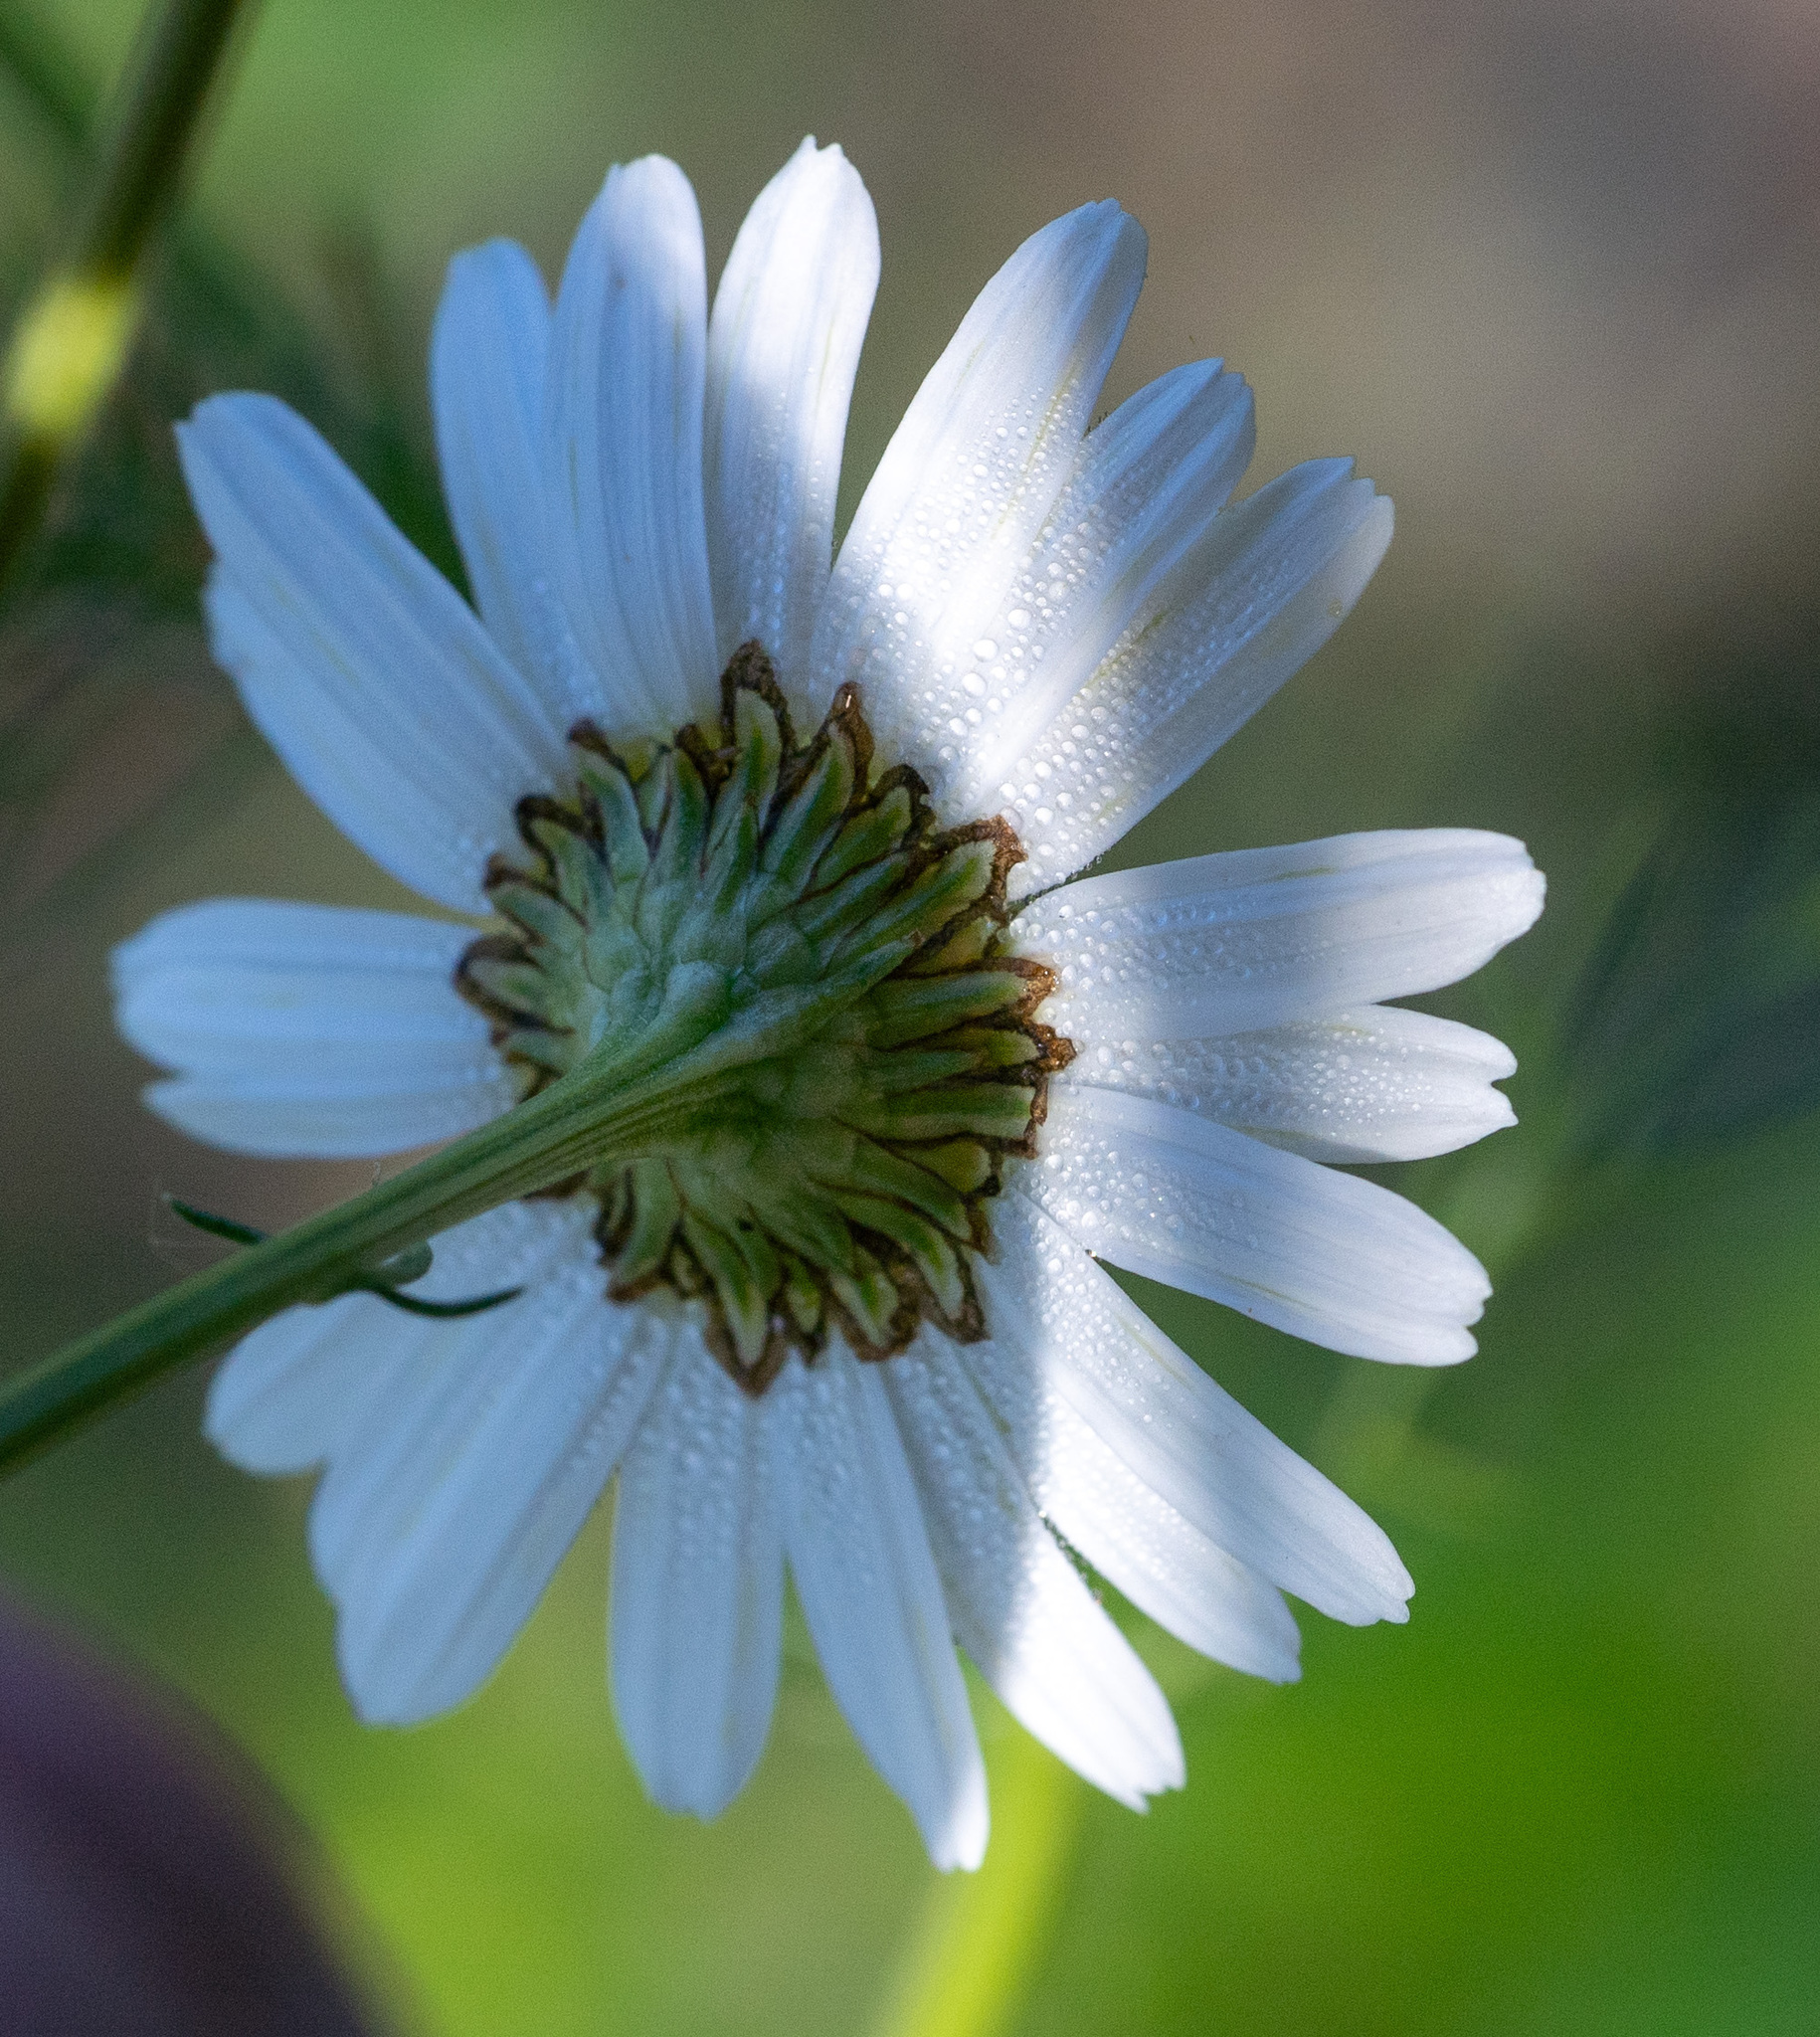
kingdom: Plantae
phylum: Tracheophyta
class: Magnoliopsida
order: Asterales
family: Asteraceae
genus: Tripleurospermum
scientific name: Tripleurospermum inodorum
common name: Scentless mayweed
